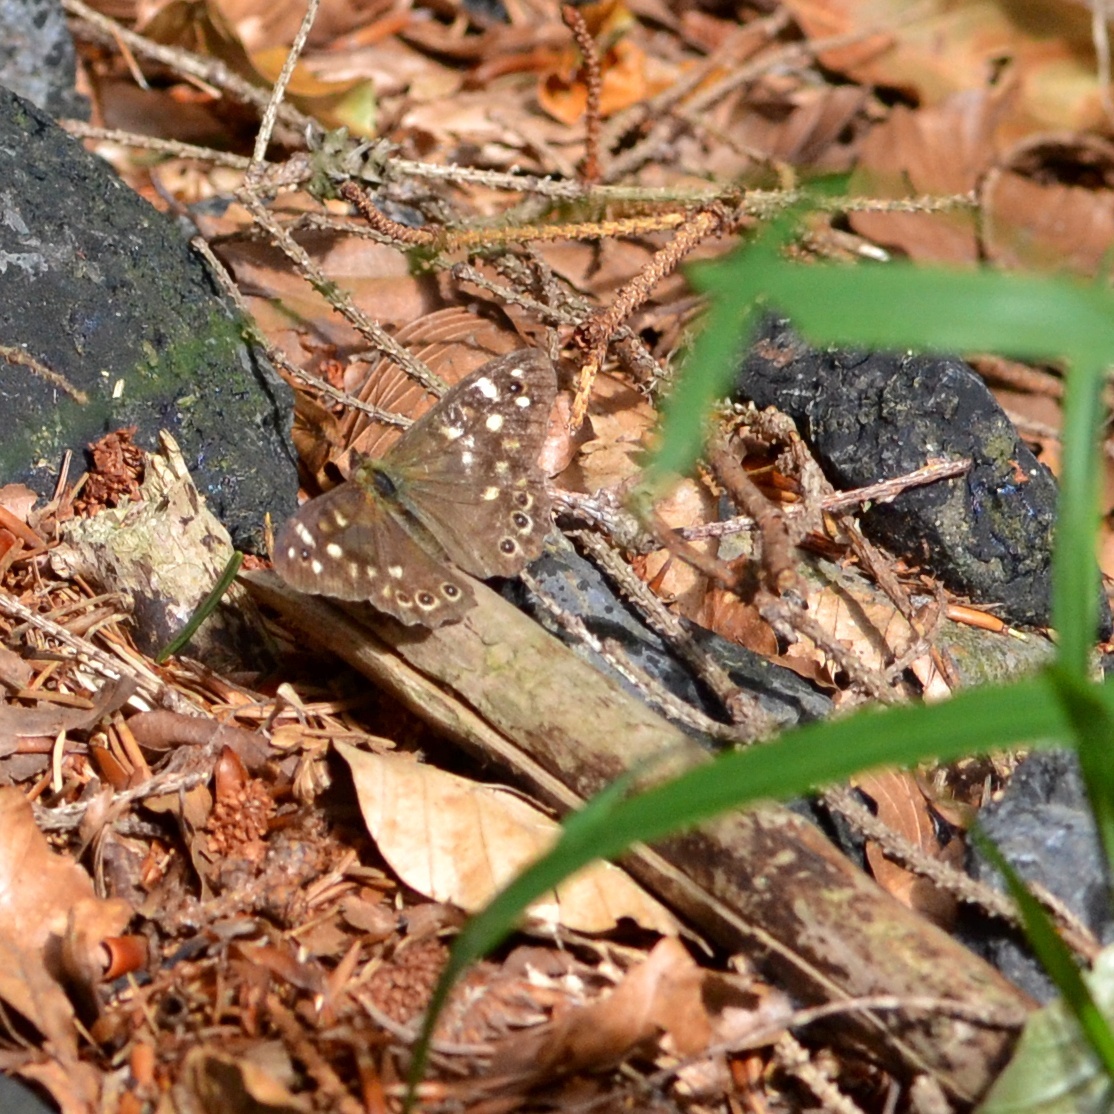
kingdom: Animalia
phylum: Arthropoda
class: Insecta
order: Lepidoptera
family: Nymphalidae
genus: Pararge
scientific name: Pararge aegeria
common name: Speckled wood
